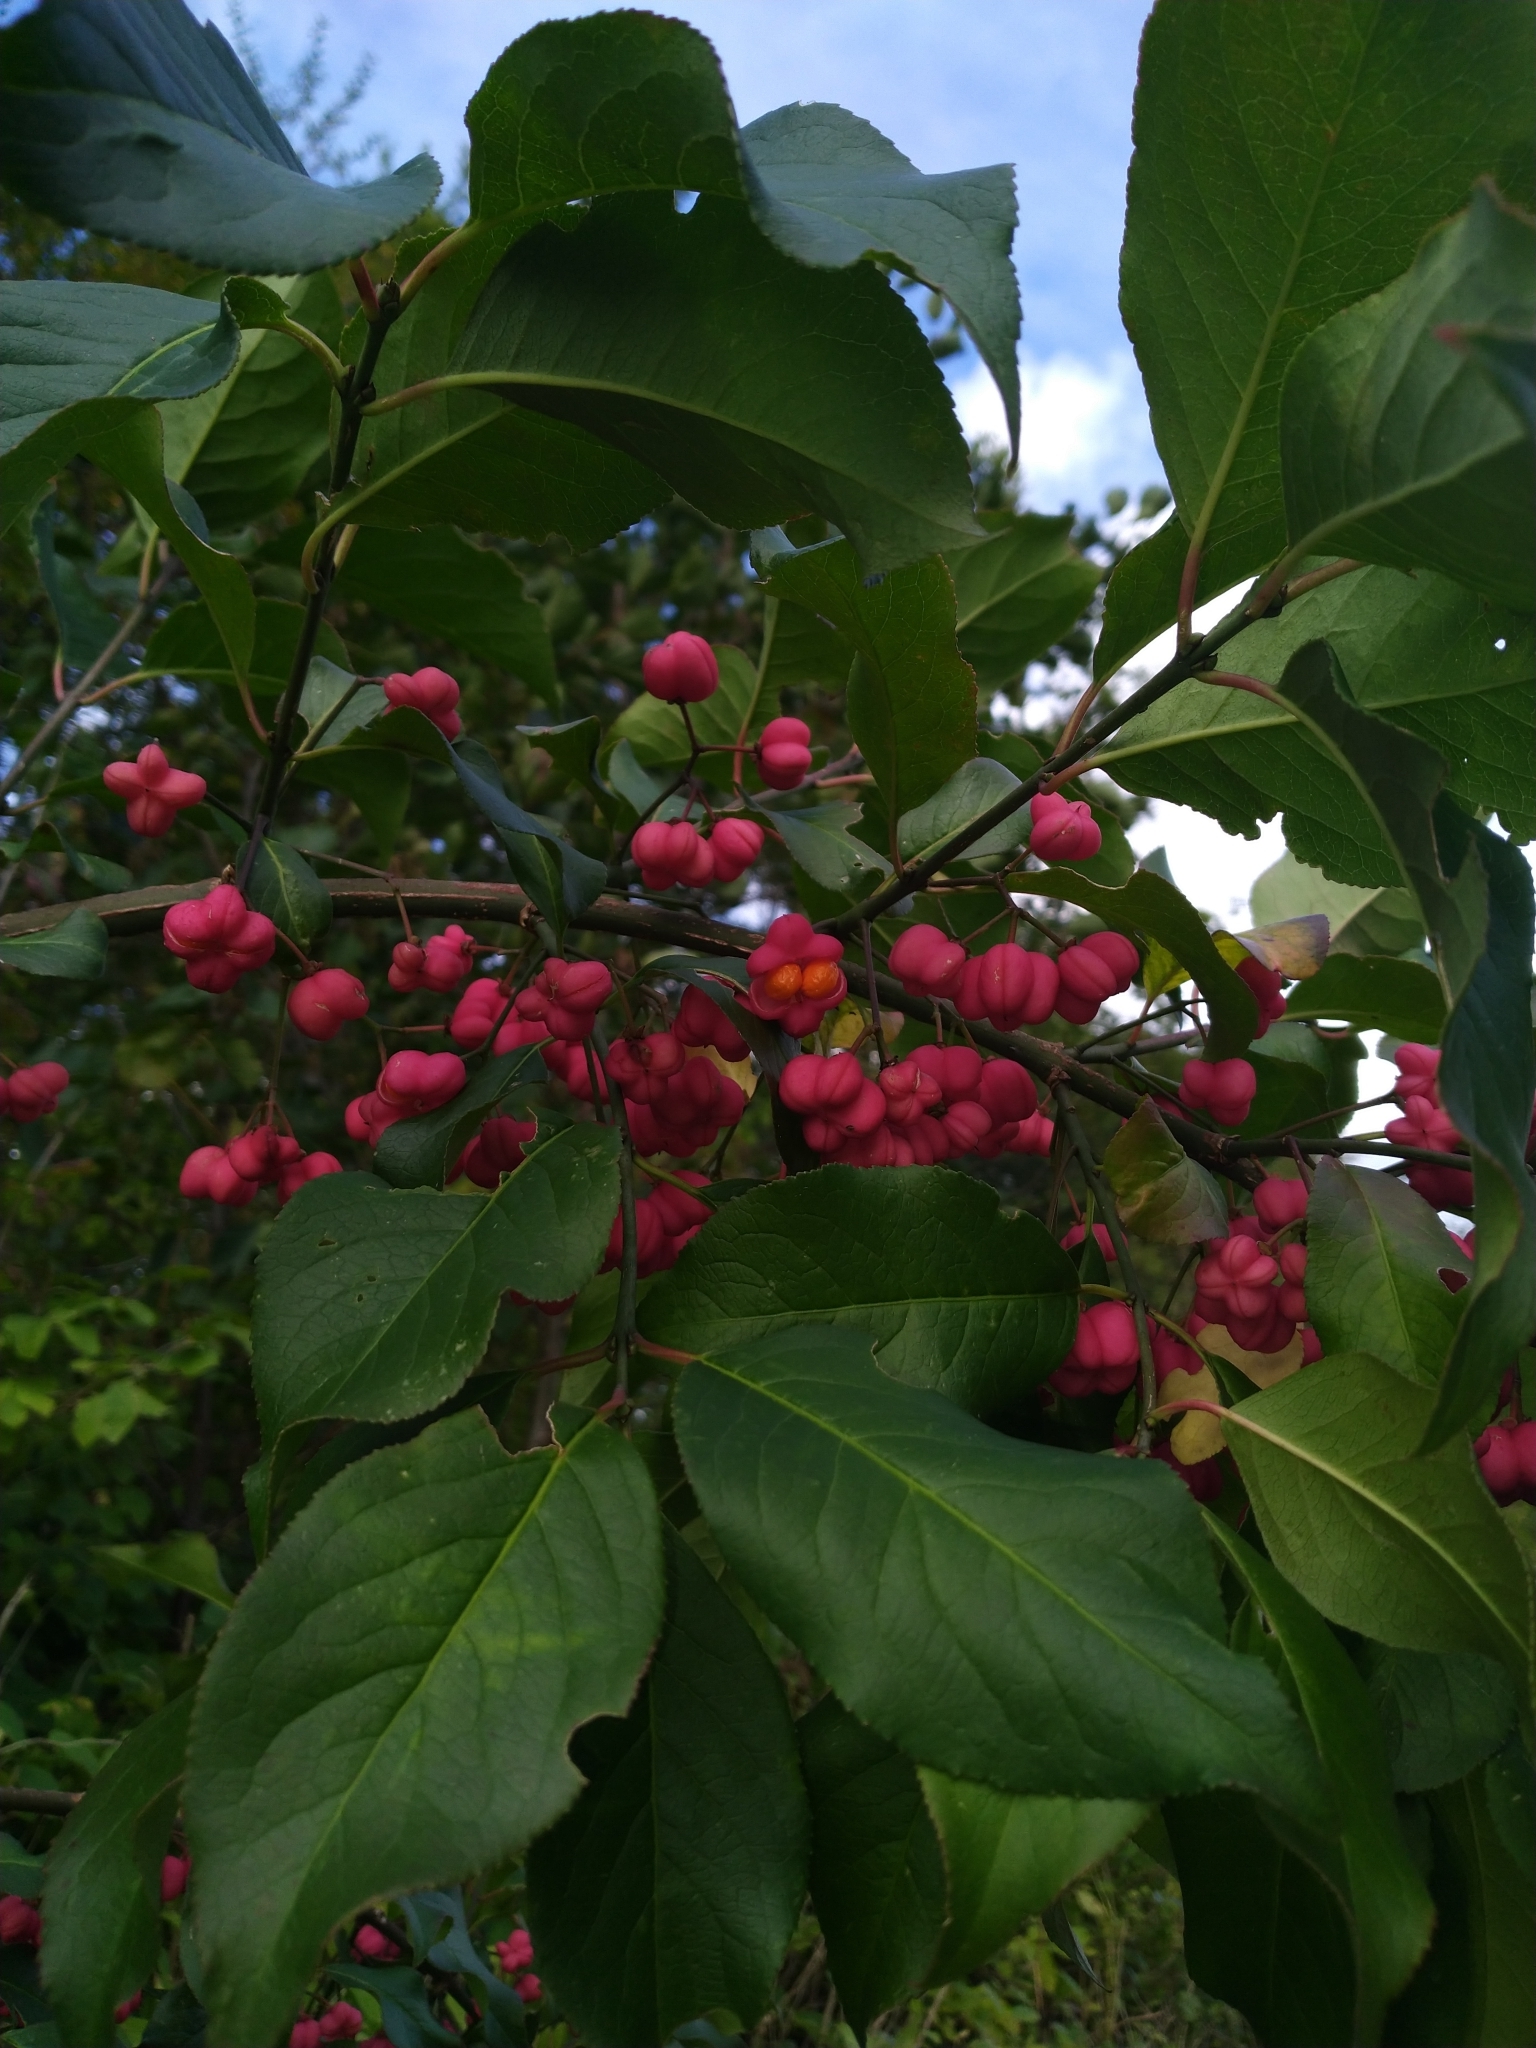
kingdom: Plantae
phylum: Tracheophyta
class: Magnoliopsida
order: Celastrales
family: Celastraceae
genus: Euonymus
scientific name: Euonymus europaeus
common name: Spindle
